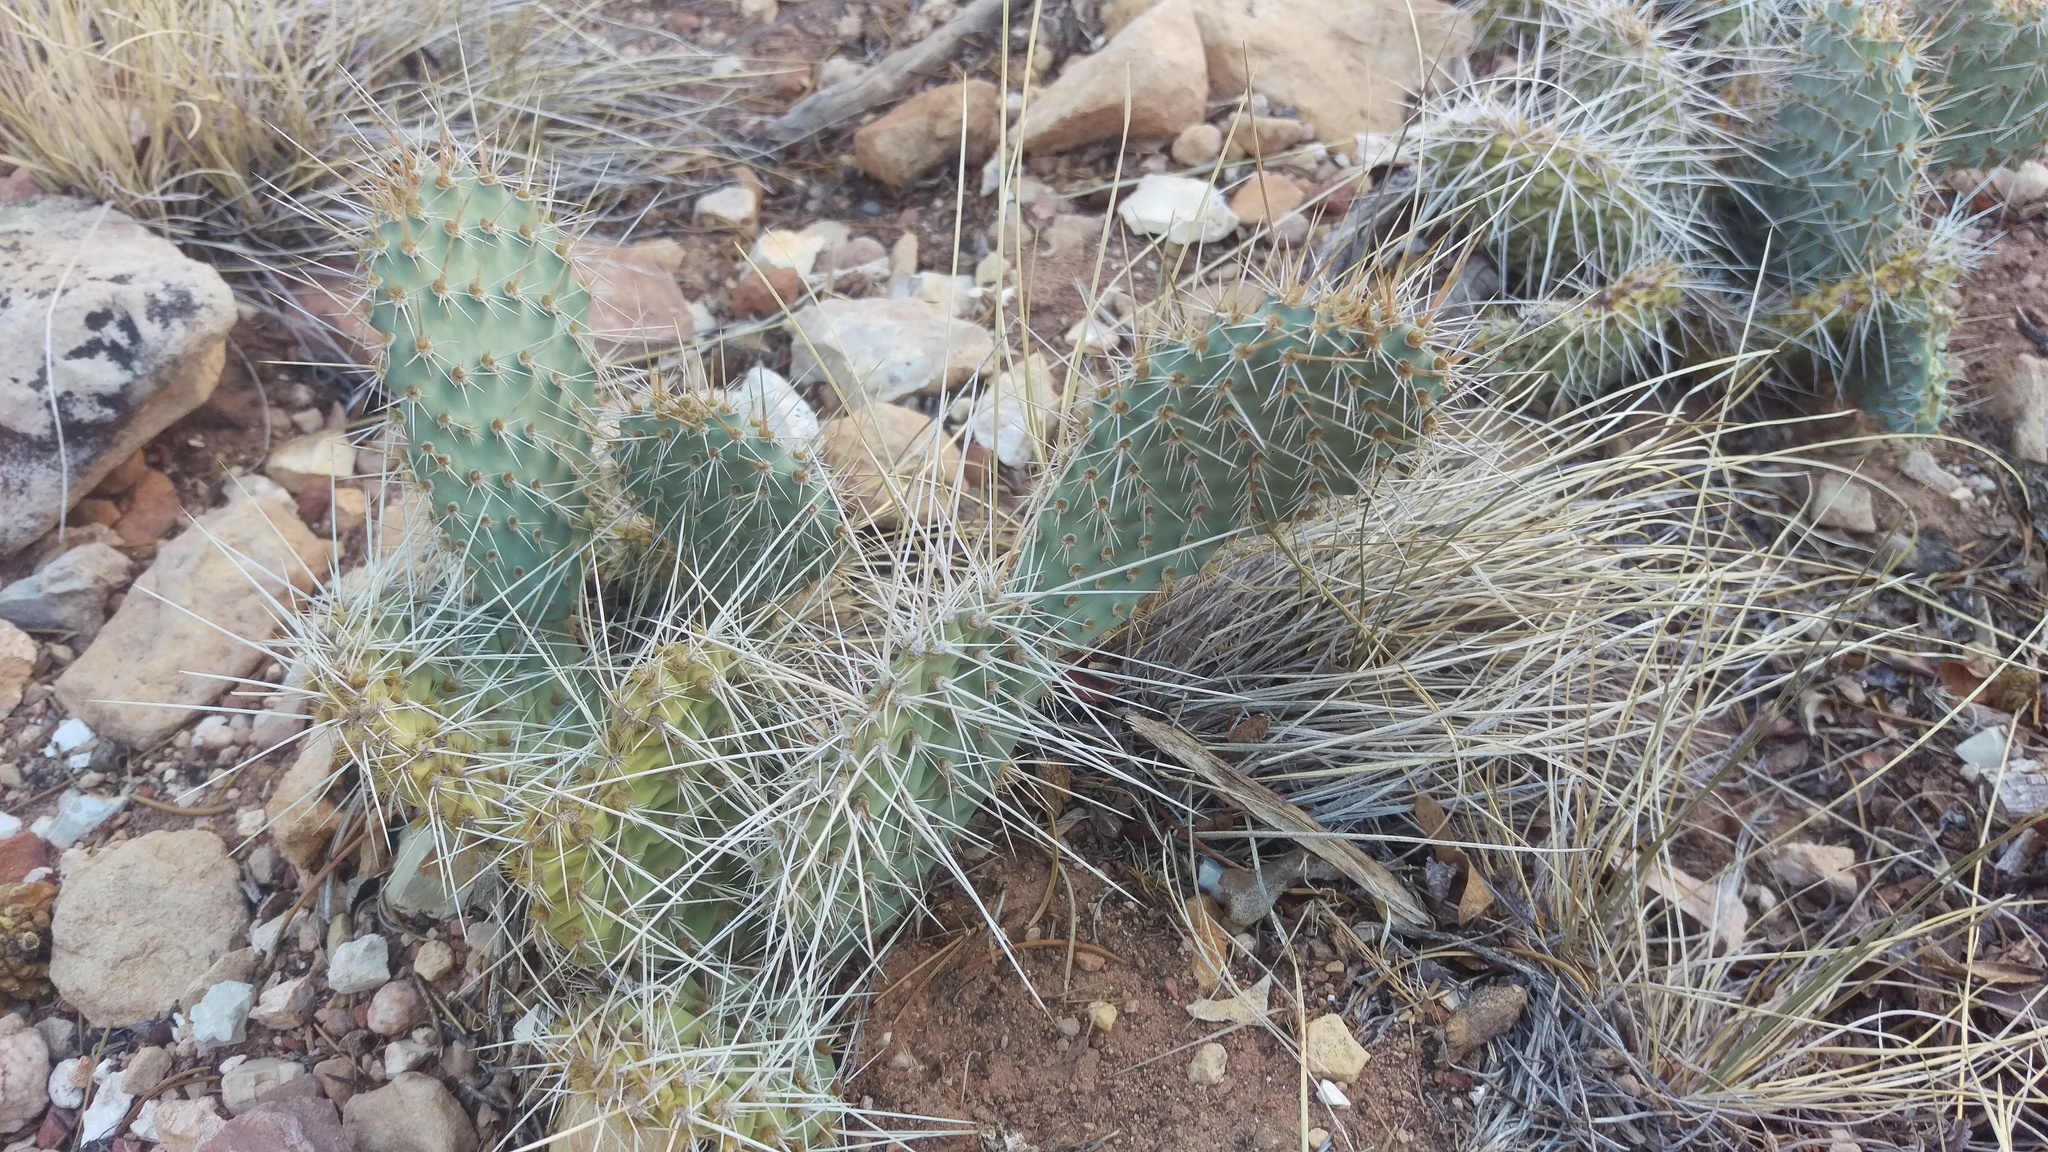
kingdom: Plantae
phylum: Tracheophyta
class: Magnoliopsida
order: Caryophyllales
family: Cactaceae
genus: Opuntia
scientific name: Opuntia polyacantha
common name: Plains prickly-pear
